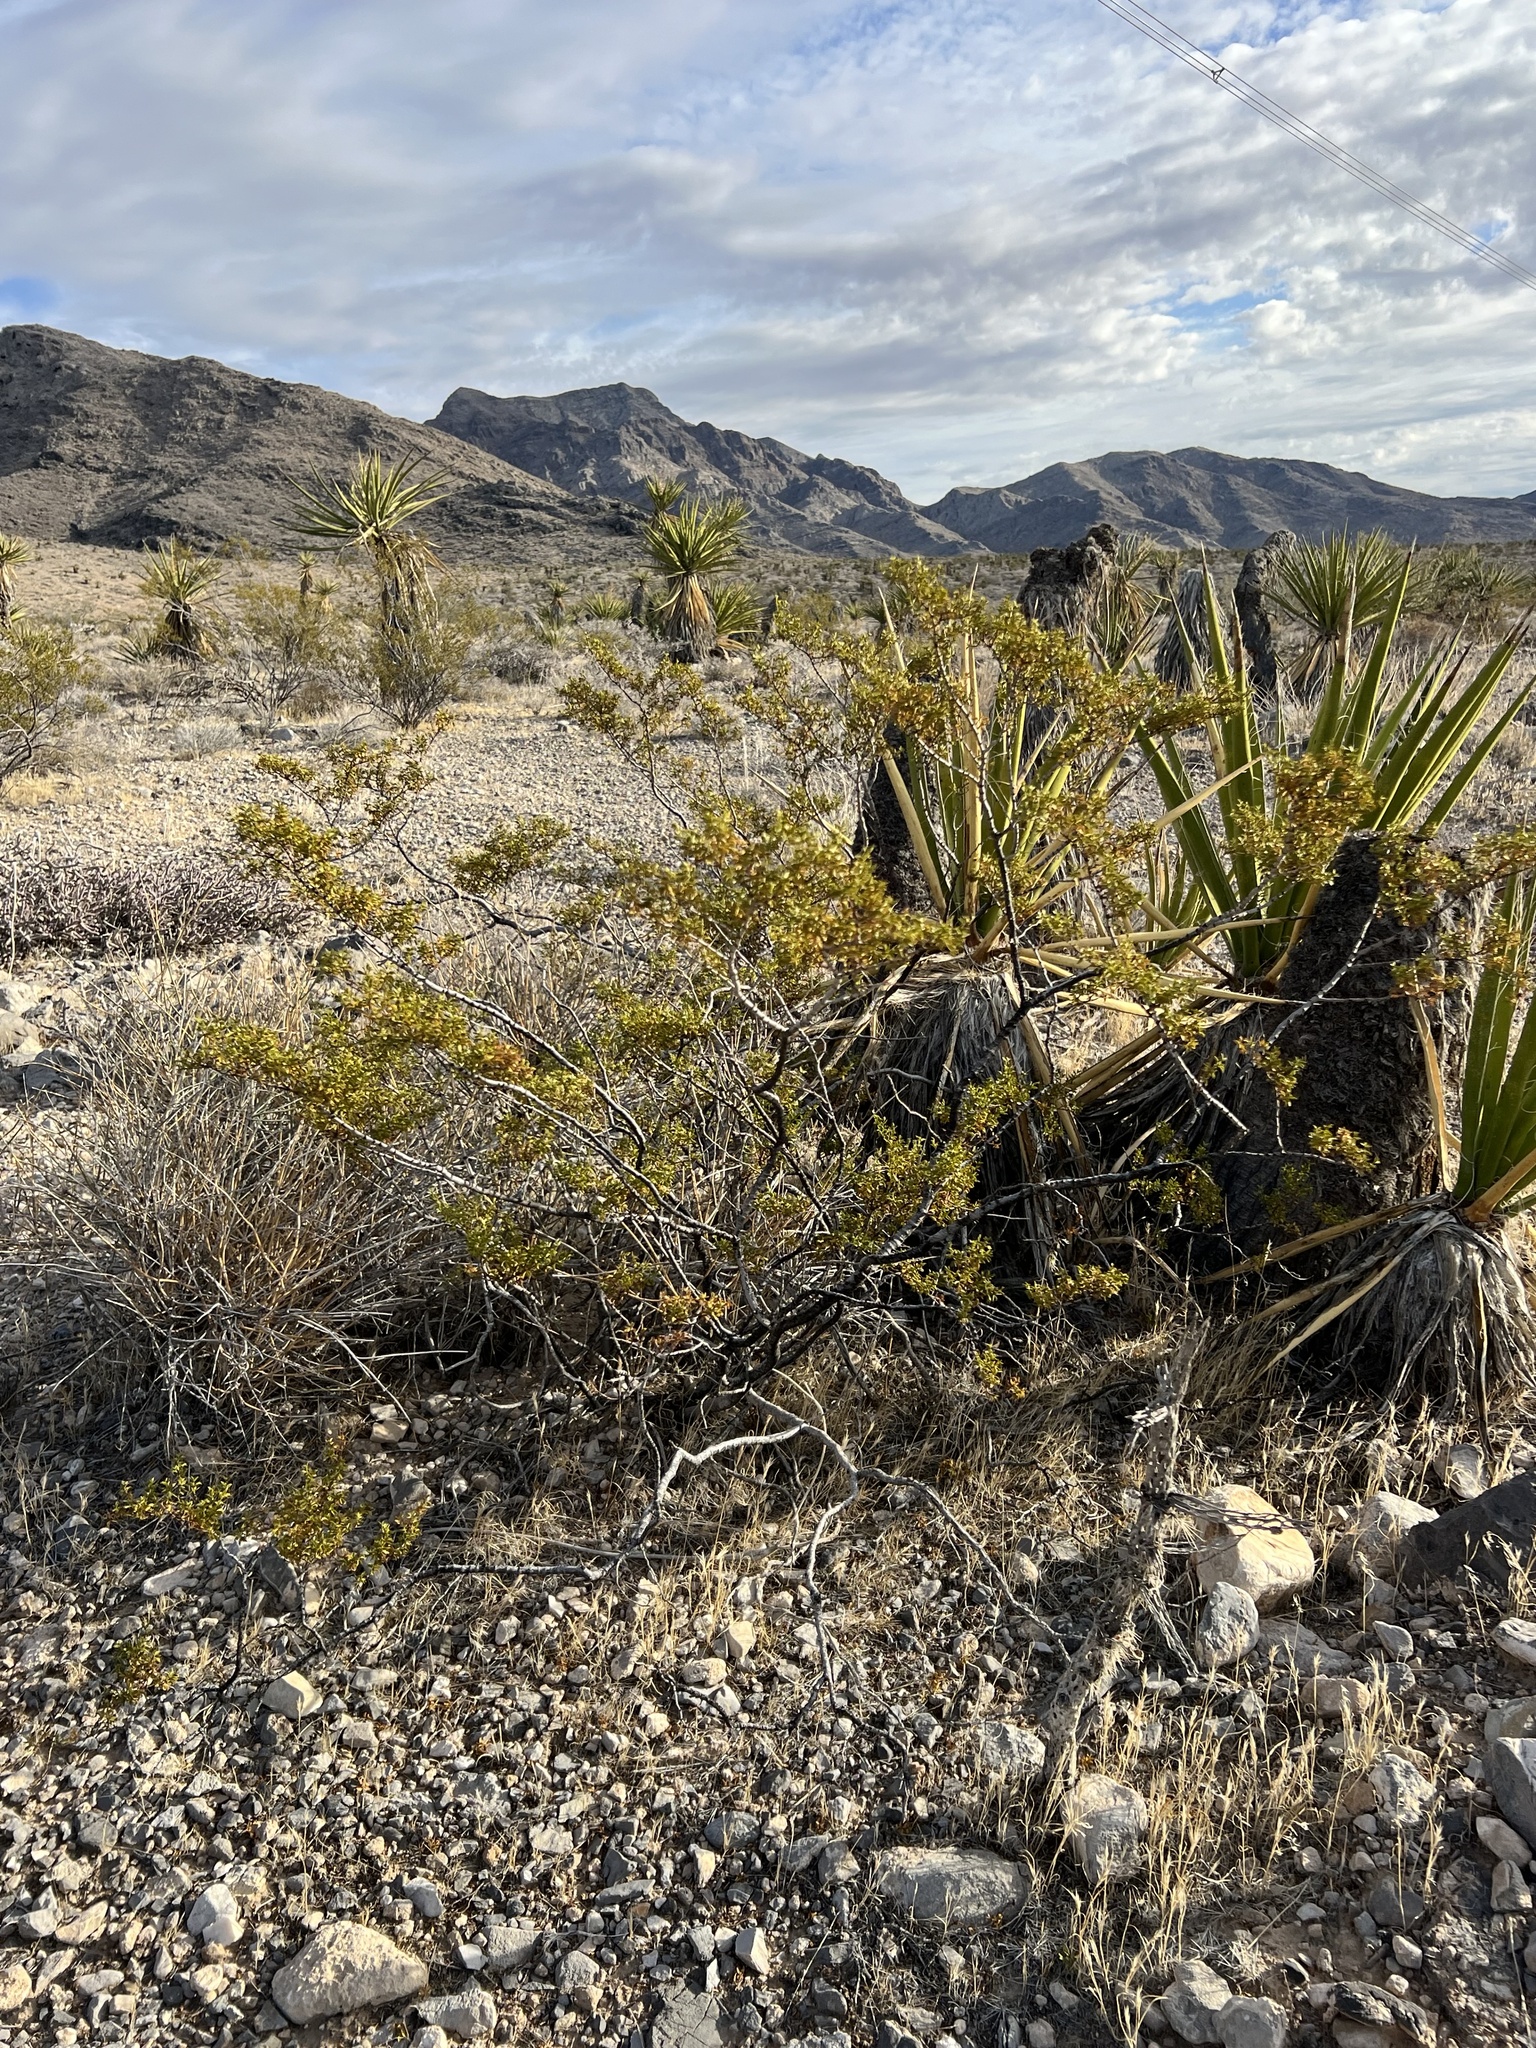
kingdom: Plantae
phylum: Tracheophyta
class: Magnoliopsida
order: Zygophyllales
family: Zygophyllaceae
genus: Larrea
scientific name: Larrea tridentata
